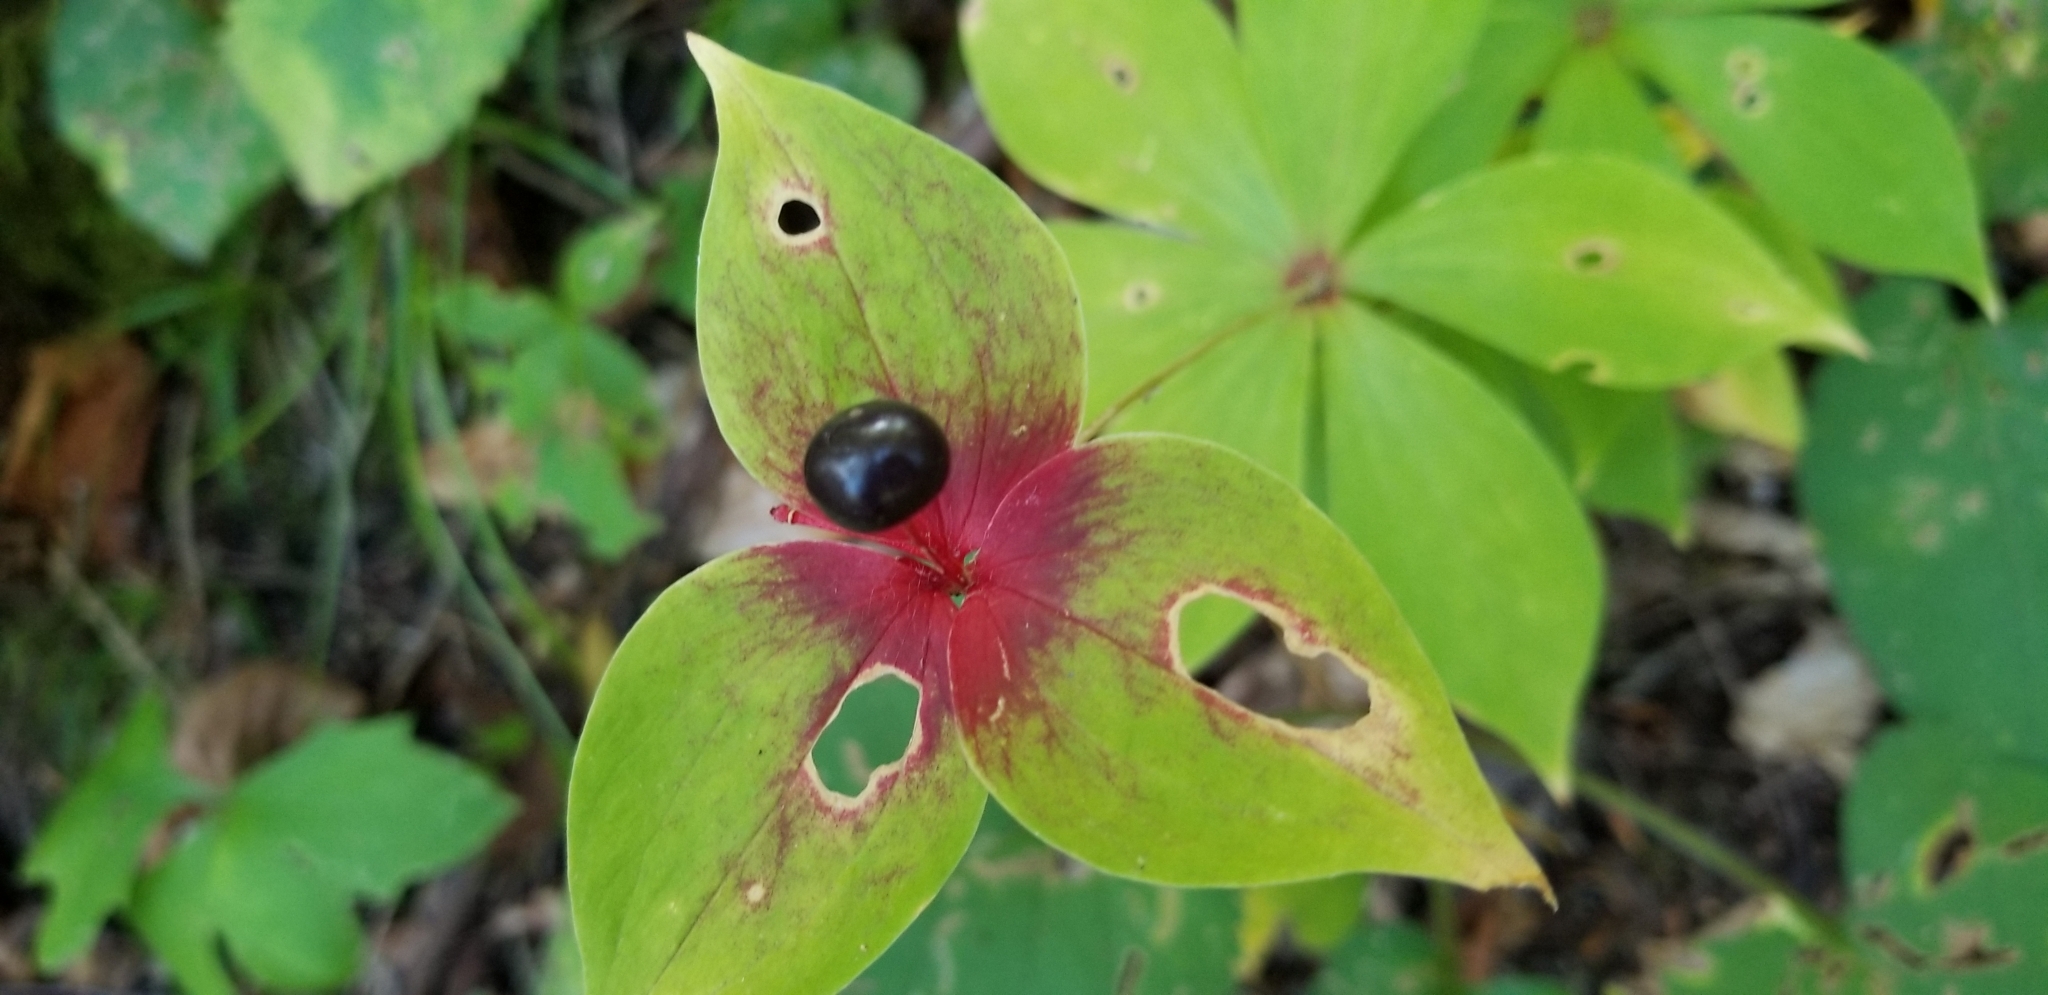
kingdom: Plantae
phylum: Tracheophyta
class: Liliopsida
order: Liliales
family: Liliaceae
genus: Medeola
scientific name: Medeola virginiana
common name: Indian cucumber-root
